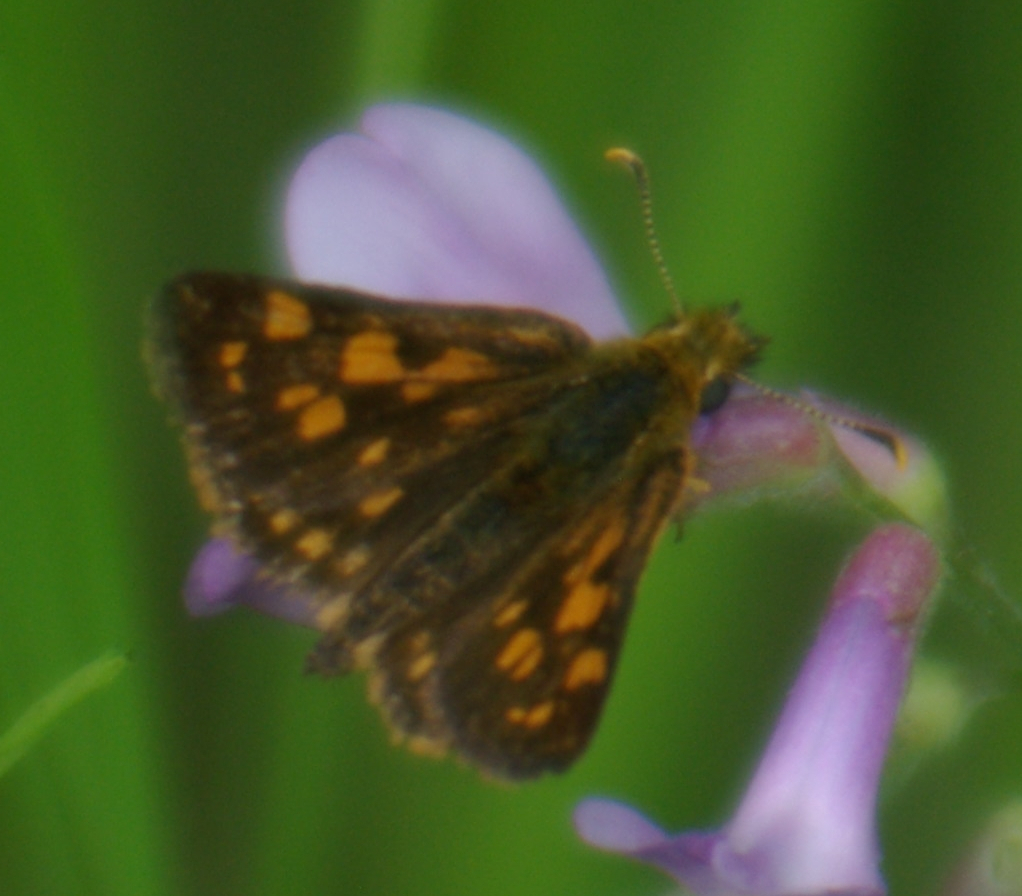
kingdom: Animalia
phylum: Arthropoda
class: Insecta
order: Lepidoptera
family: Hesperiidae
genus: Carterocephalus
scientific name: Carterocephalus mandan
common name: Arctic skipperling
